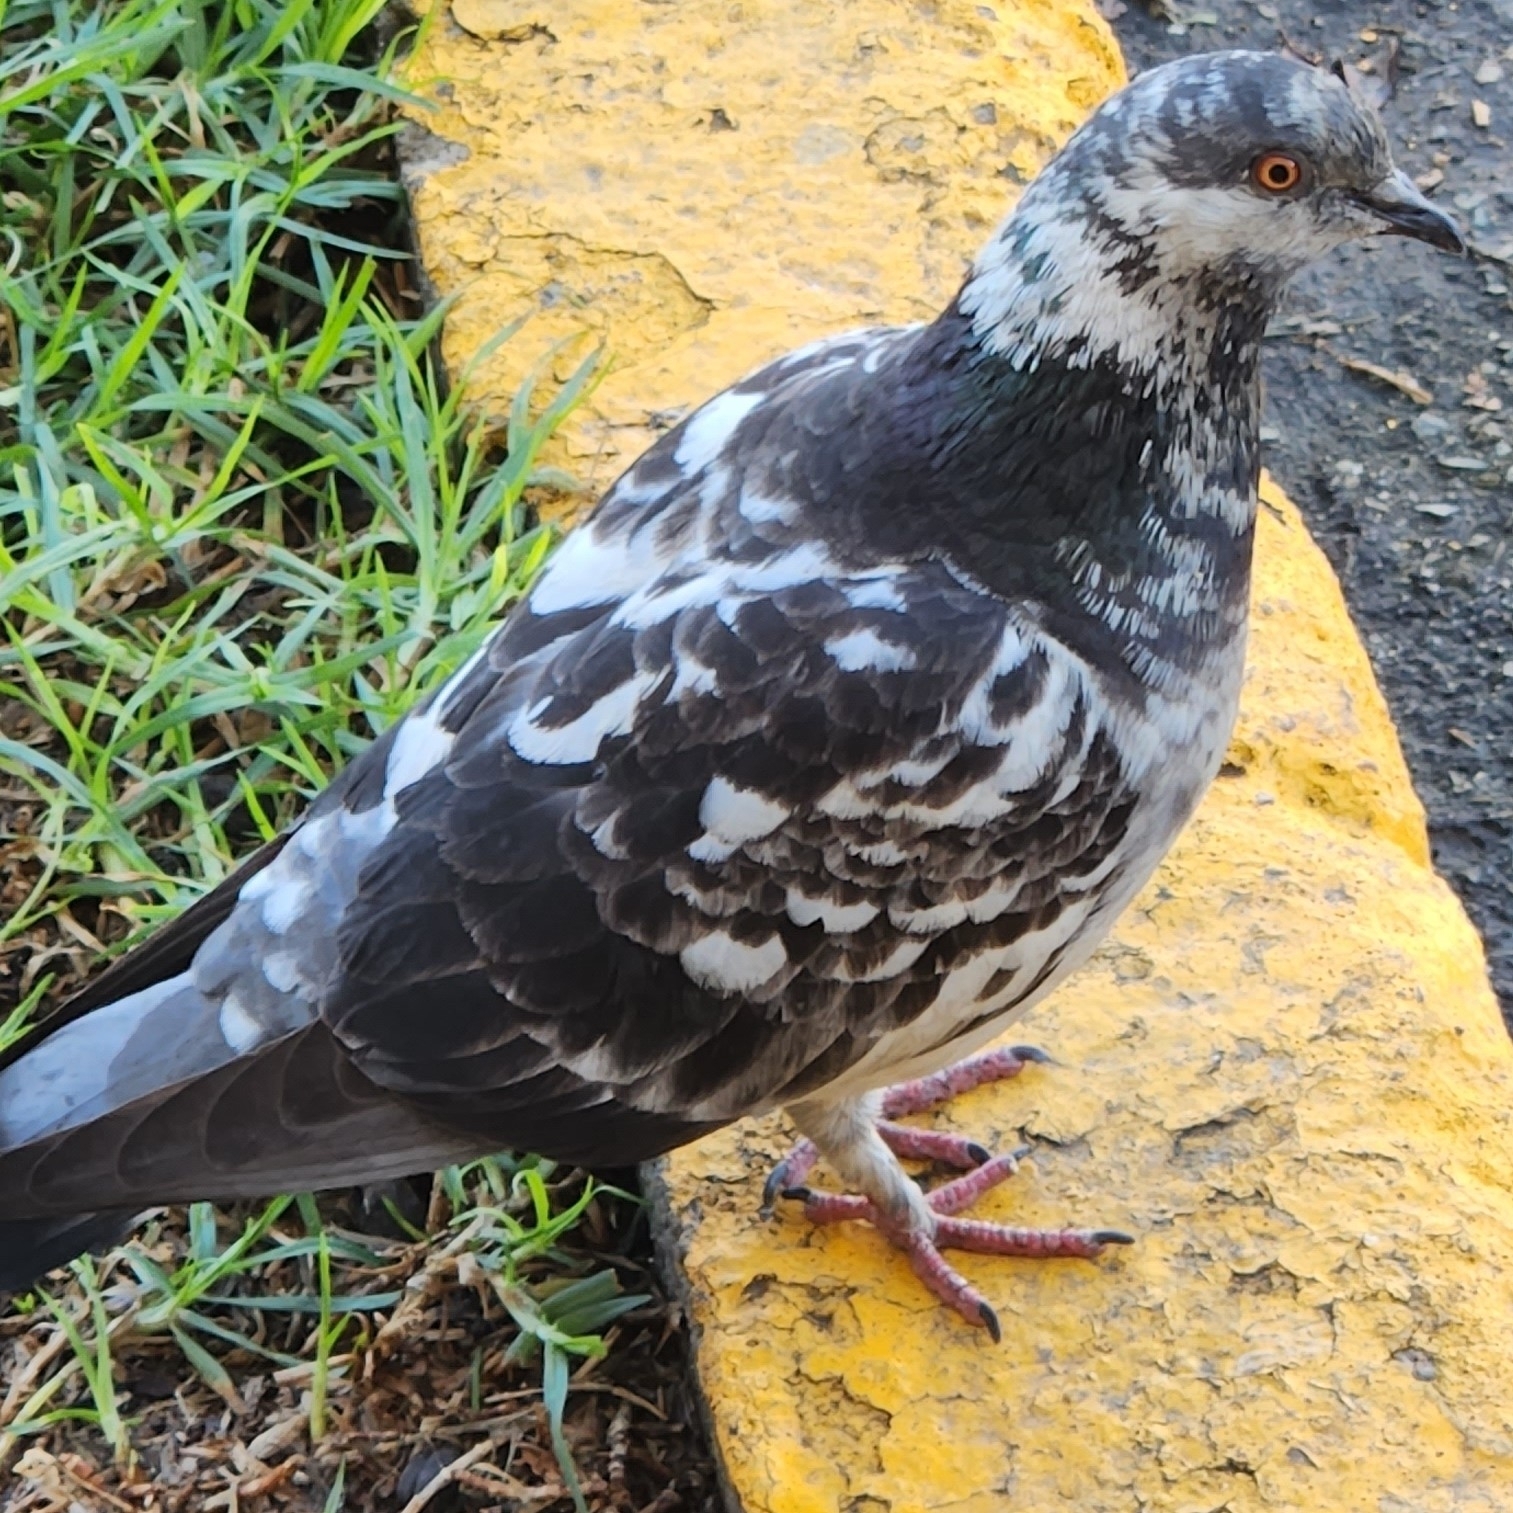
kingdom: Animalia
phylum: Chordata
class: Aves
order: Columbiformes
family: Columbidae
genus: Columba
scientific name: Columba livia
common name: Rock pigeon
